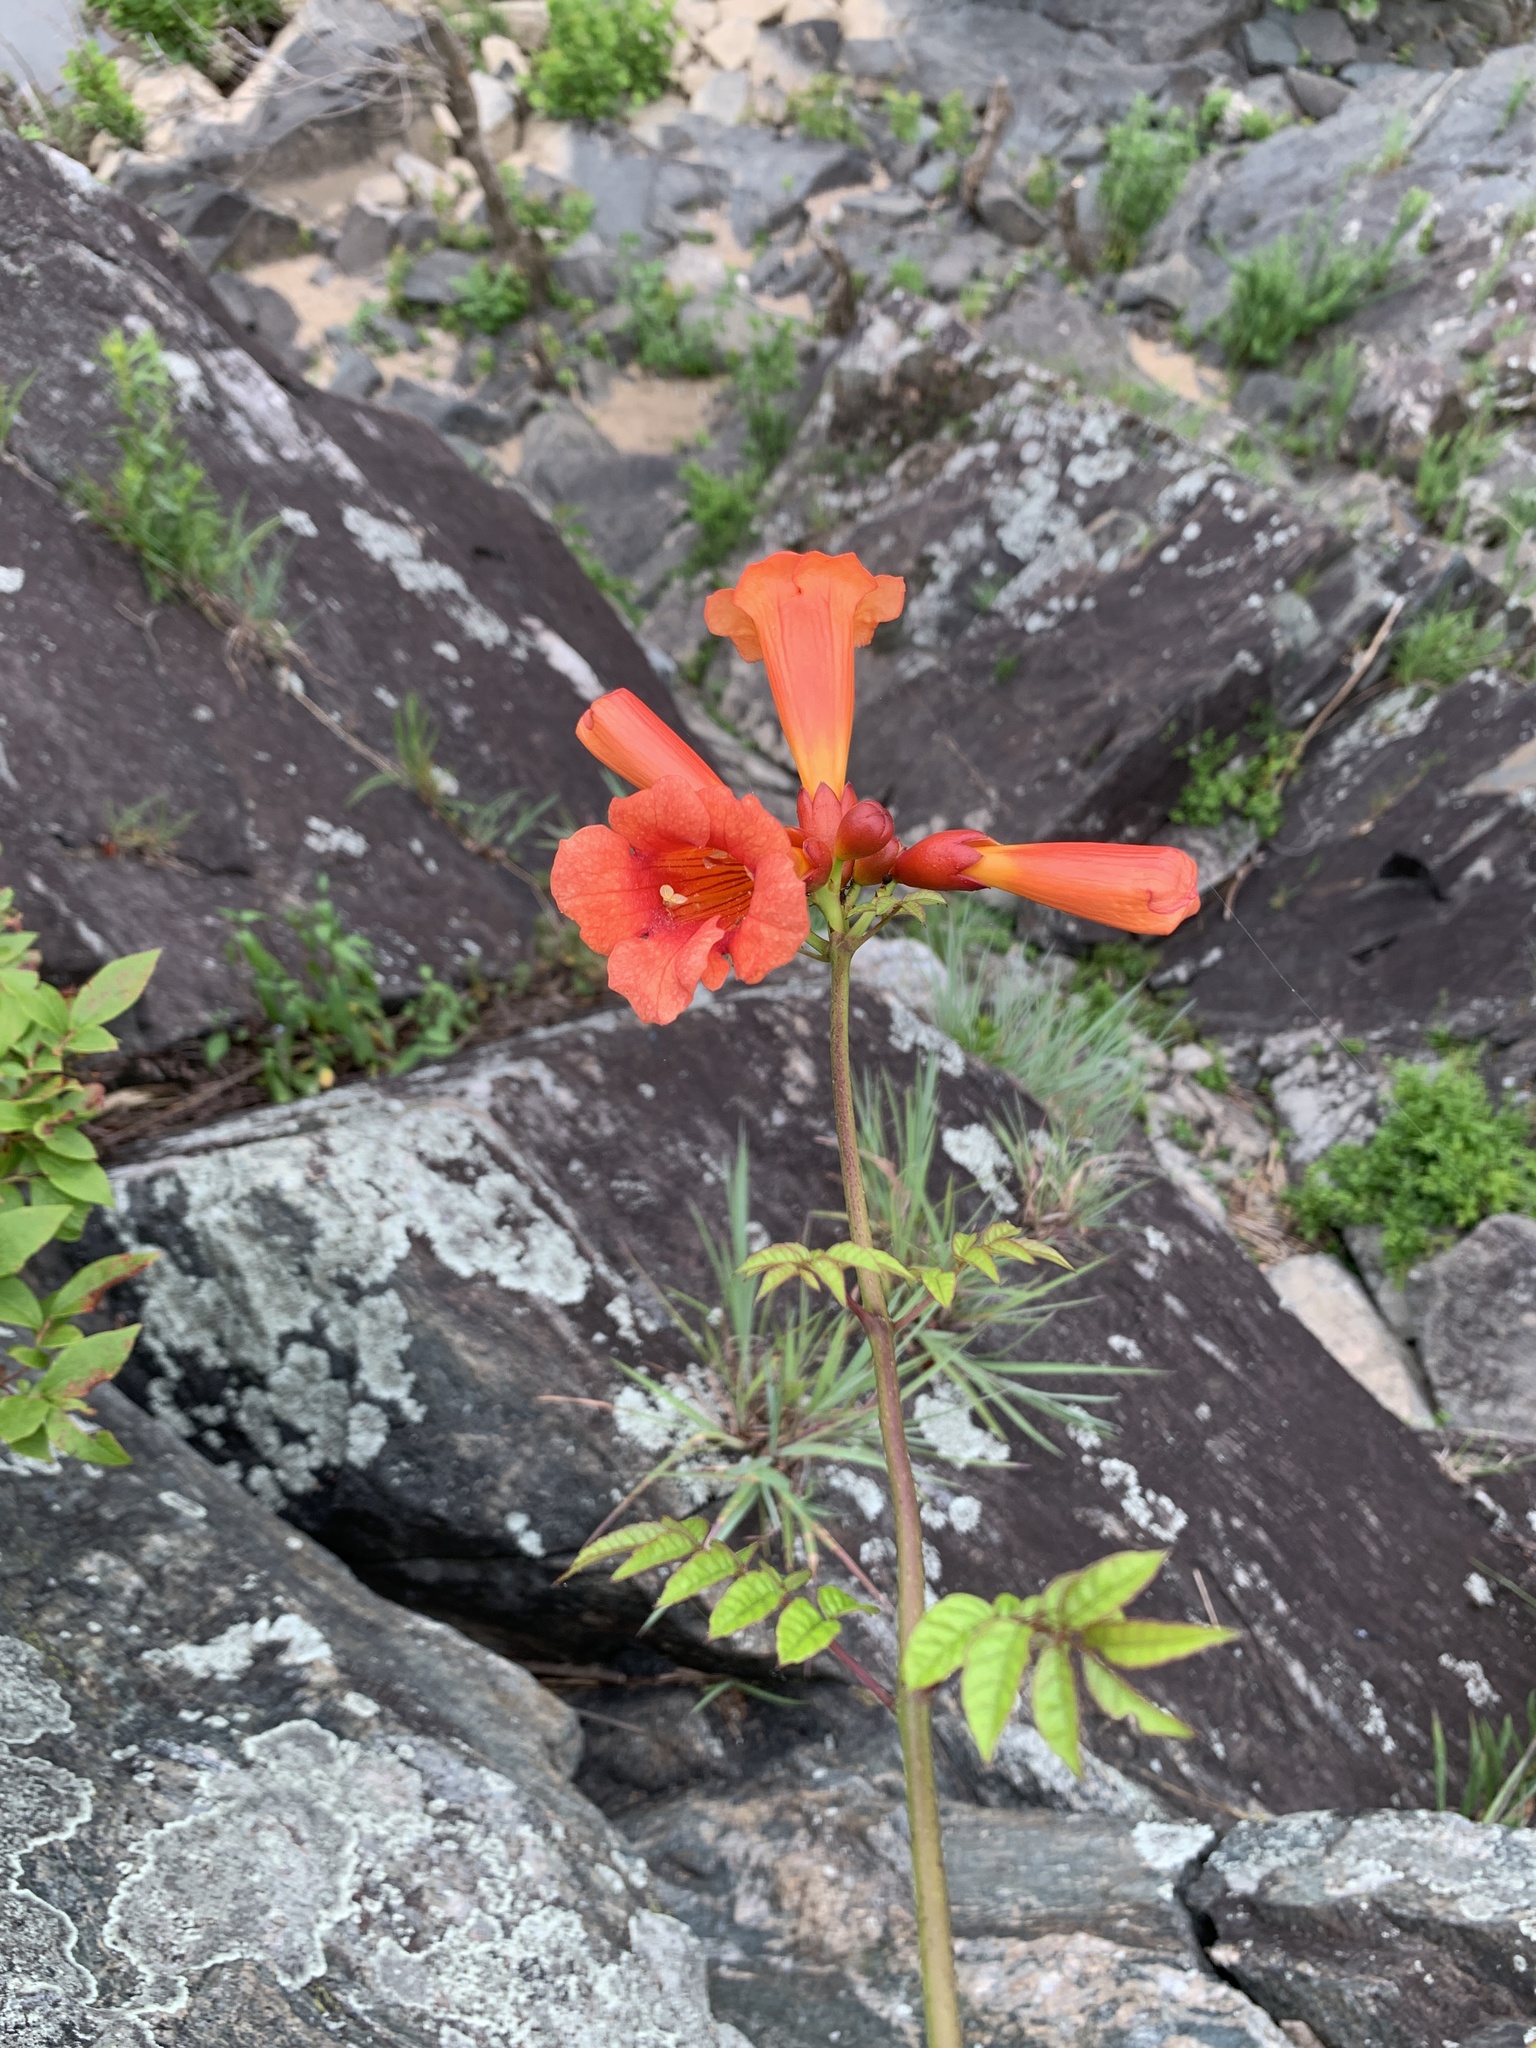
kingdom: Plantae
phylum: Tracheophyta
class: Magnoliopsida
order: Lamiales
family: Bignoniaceae
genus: Campsis
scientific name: Campsis radicans
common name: Trumpet-creeper
